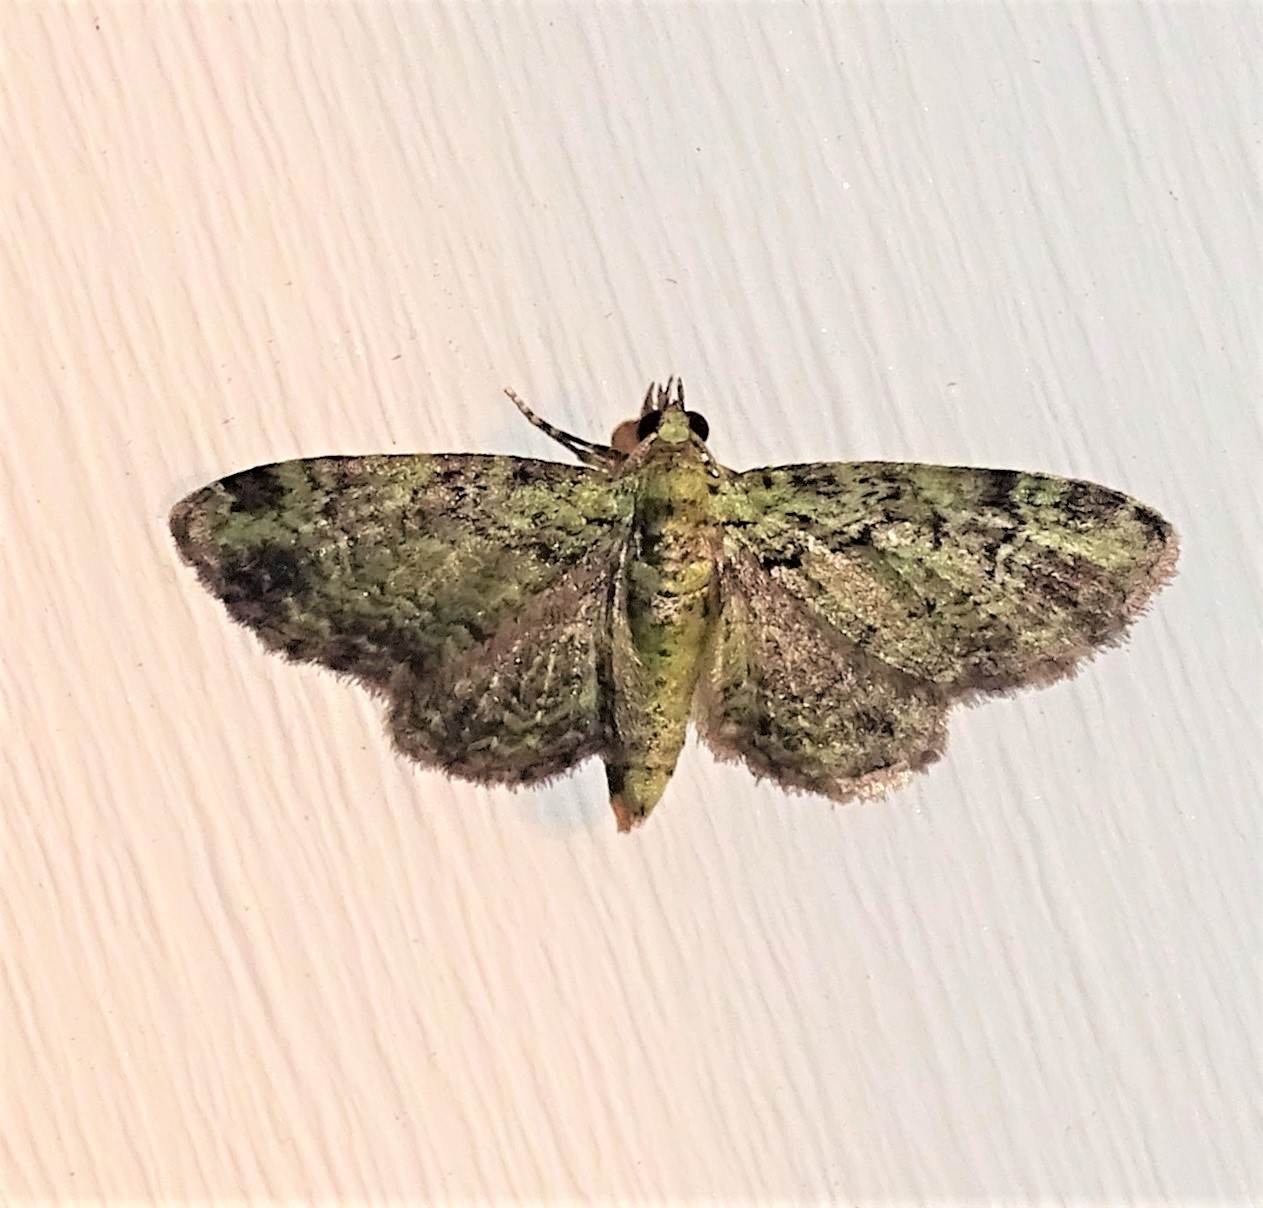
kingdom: Animalia
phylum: Arthropoda
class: Insecta
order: Lepidoptera
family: Geometridae
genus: Pasiphila
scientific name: Pasiphila rectangulata
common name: Green pug
